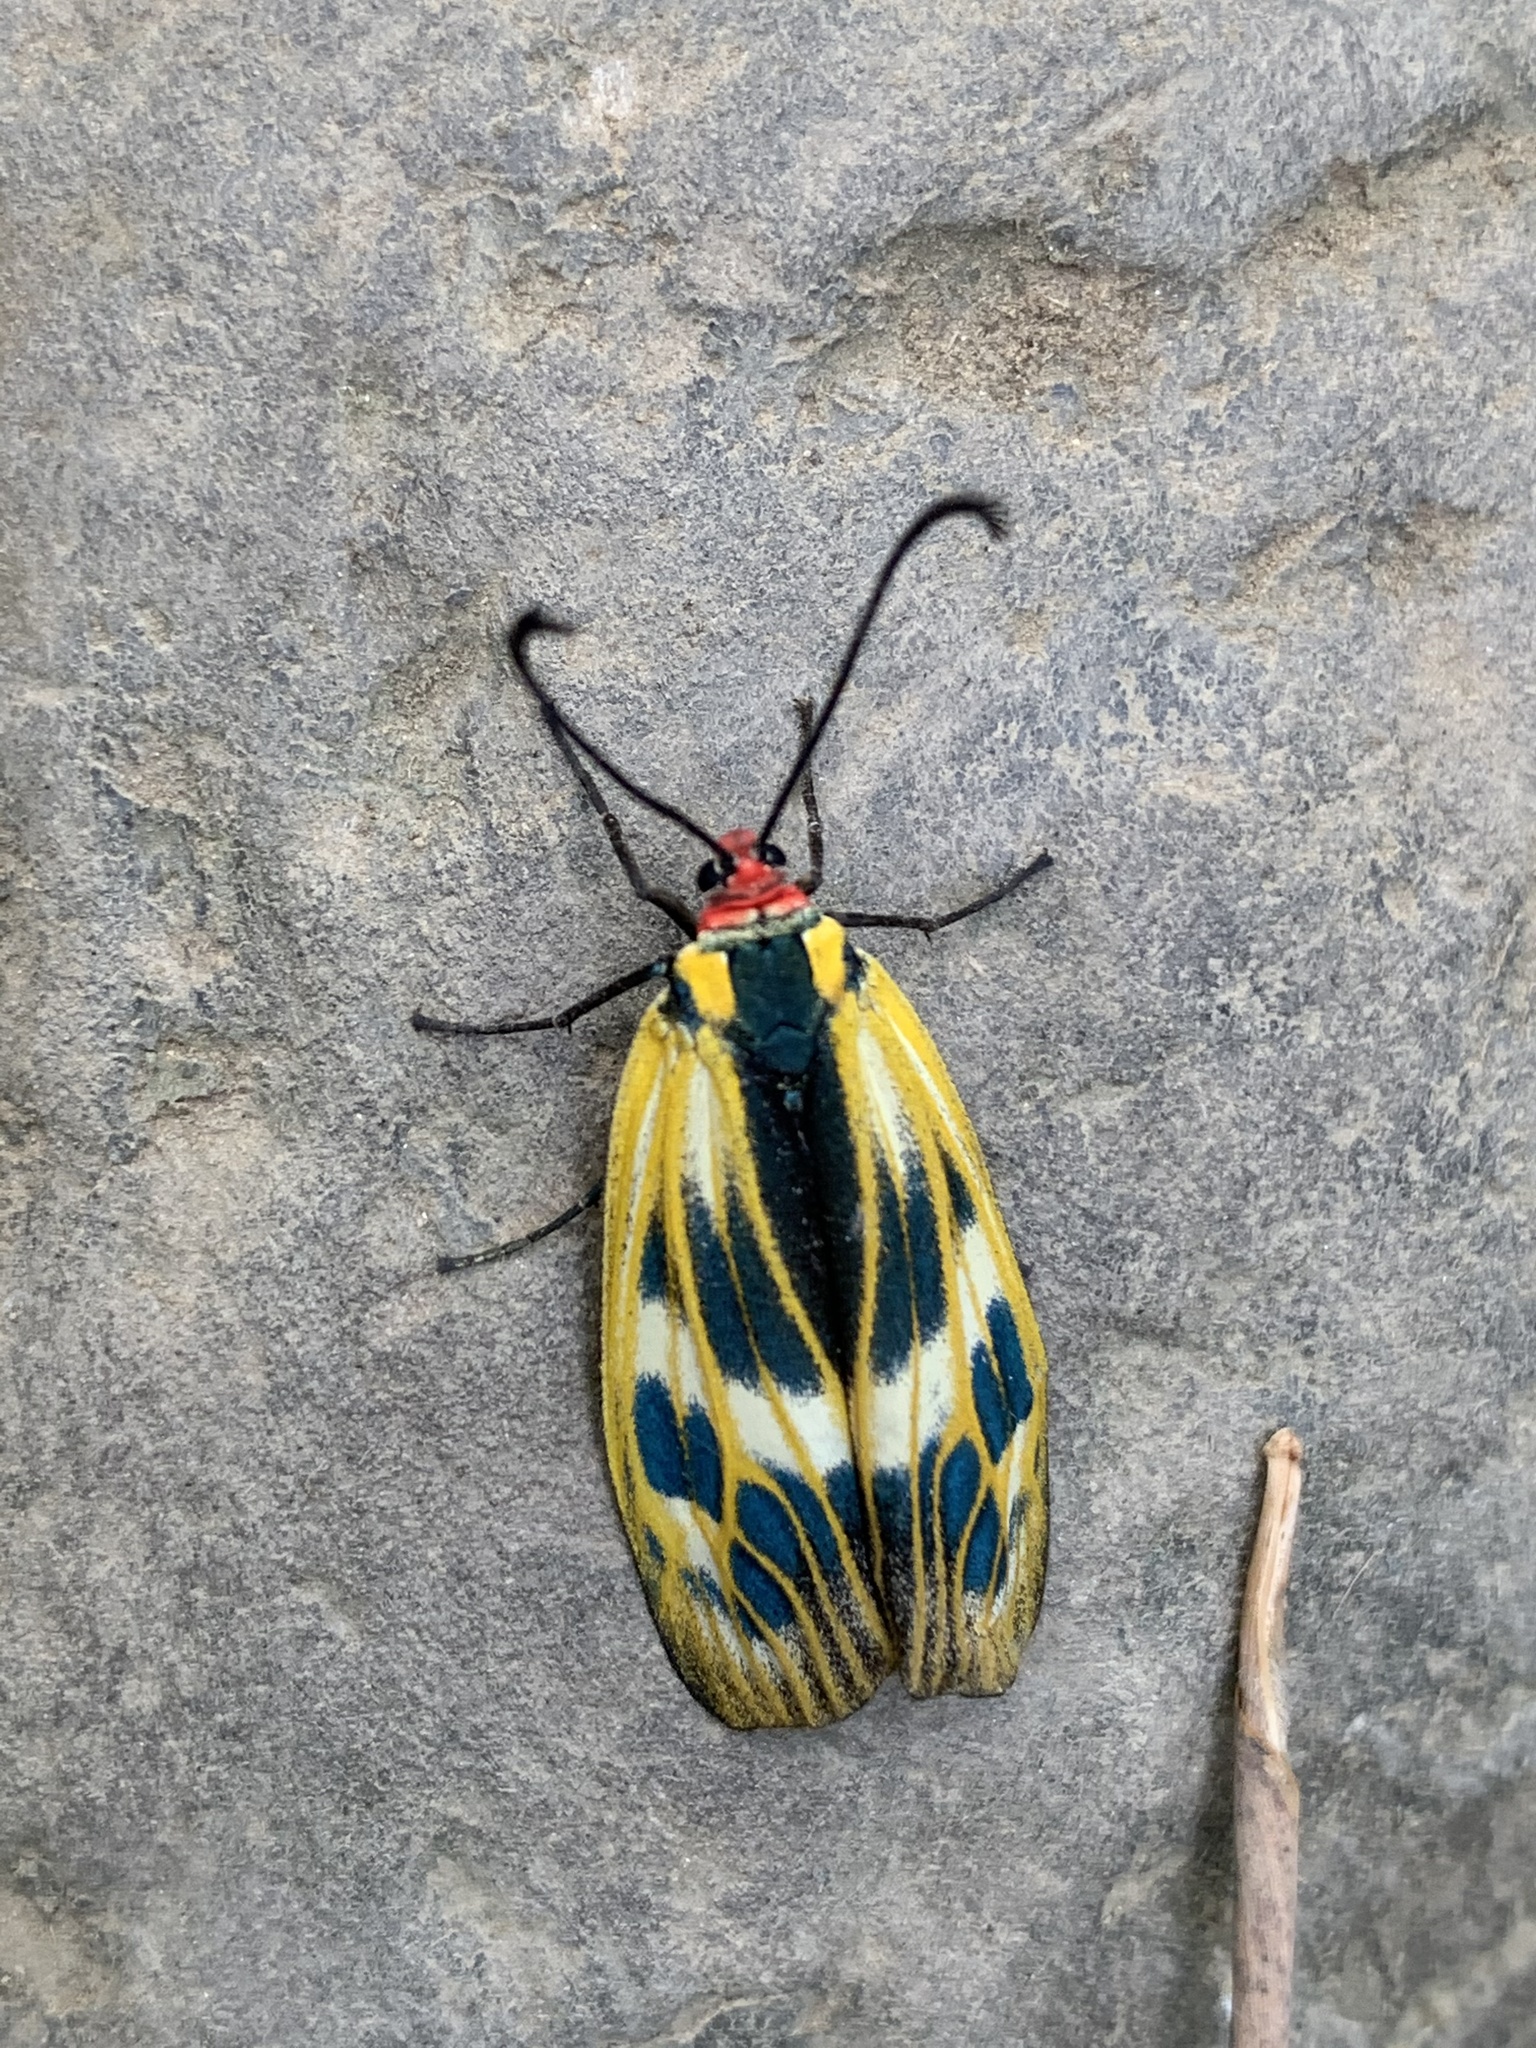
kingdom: Animalia
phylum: Arthropoda
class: Insecta
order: Lepidoptera
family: Zygaenidae
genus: Soritia
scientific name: Soritia strandi
